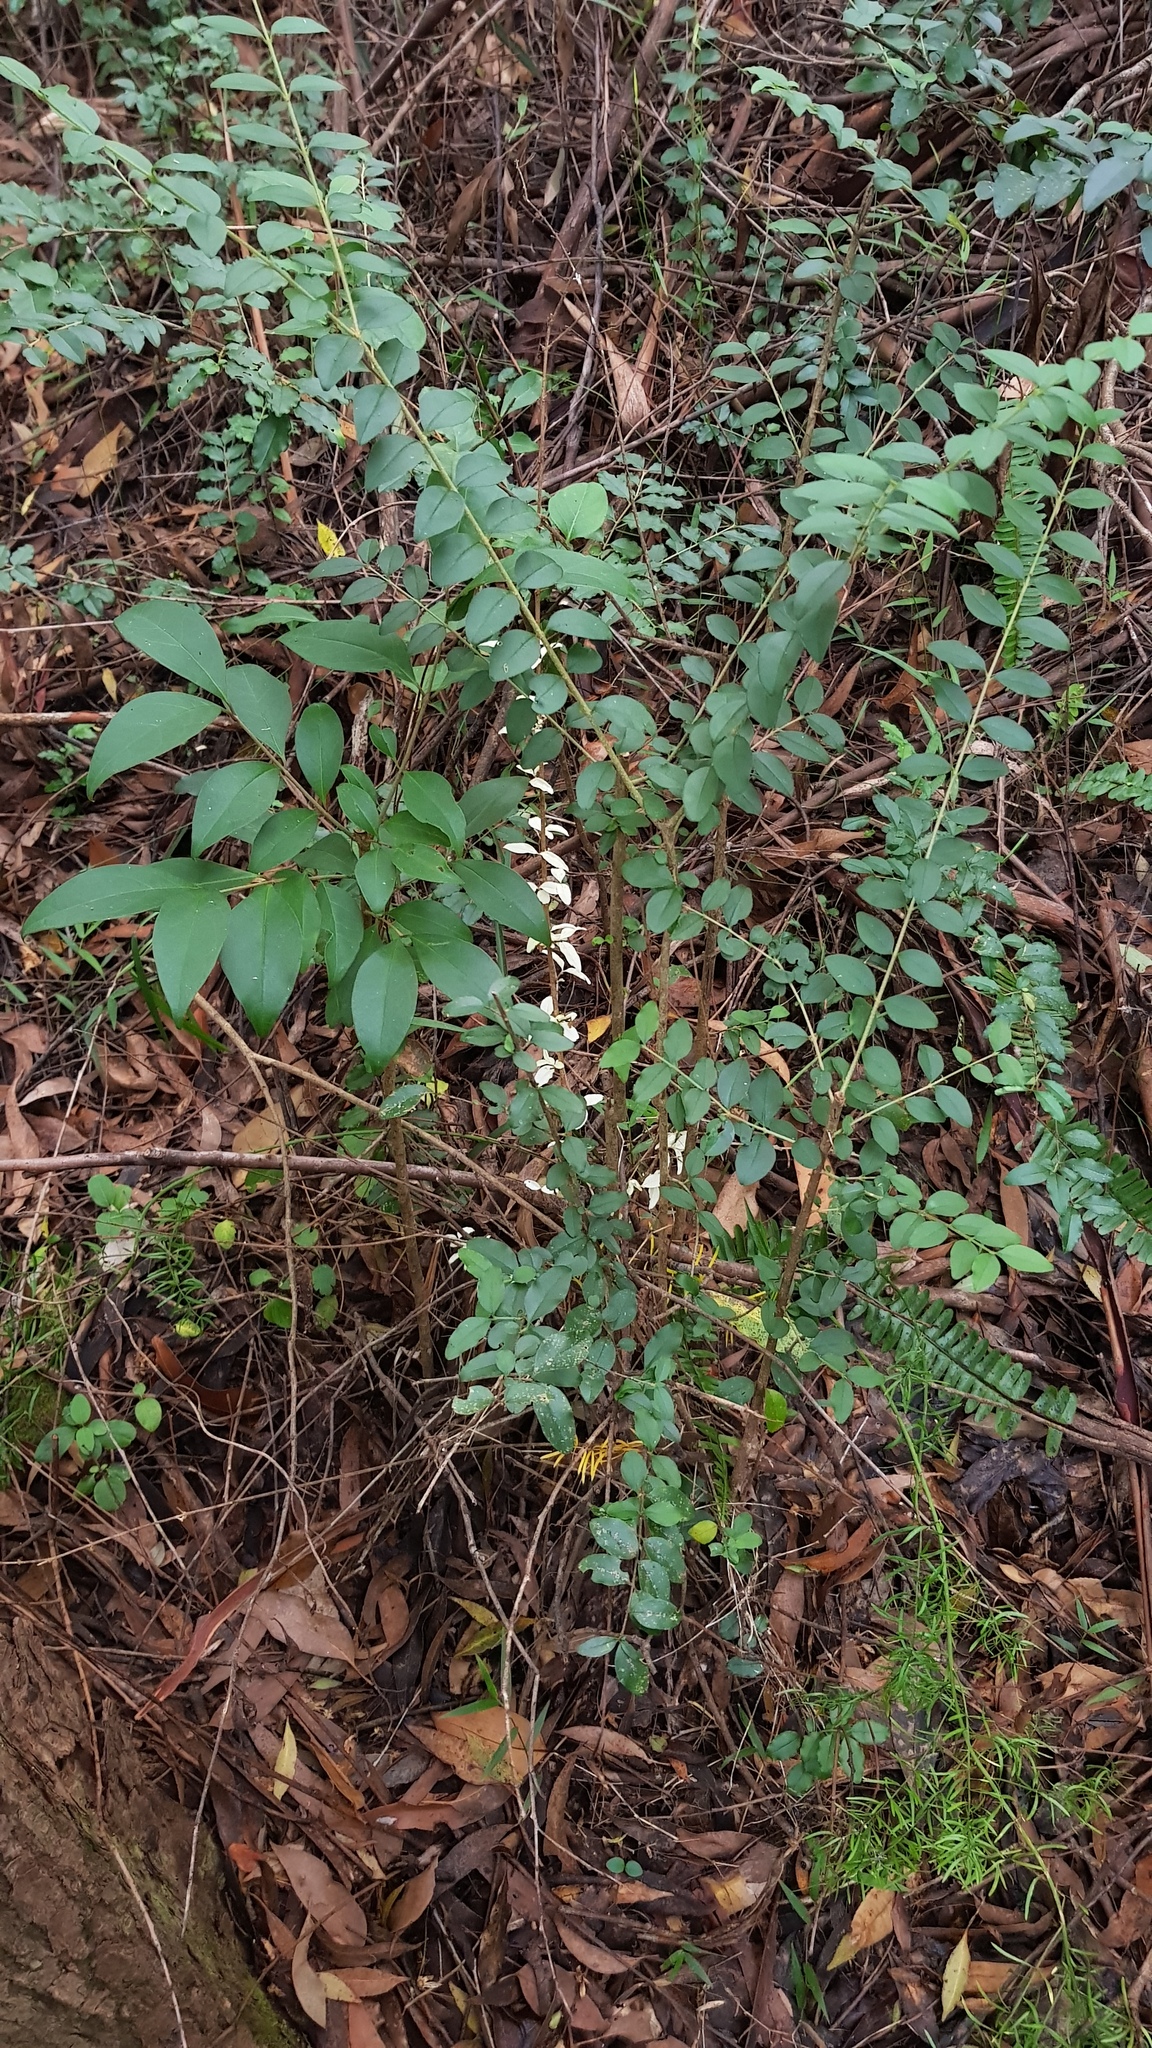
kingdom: Plantae
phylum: Tracheophyta
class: Magnoliopsida
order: Lamiales
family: Oleaceae
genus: Ligustrum
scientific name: Ligustrum sinense
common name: Chinese privet
